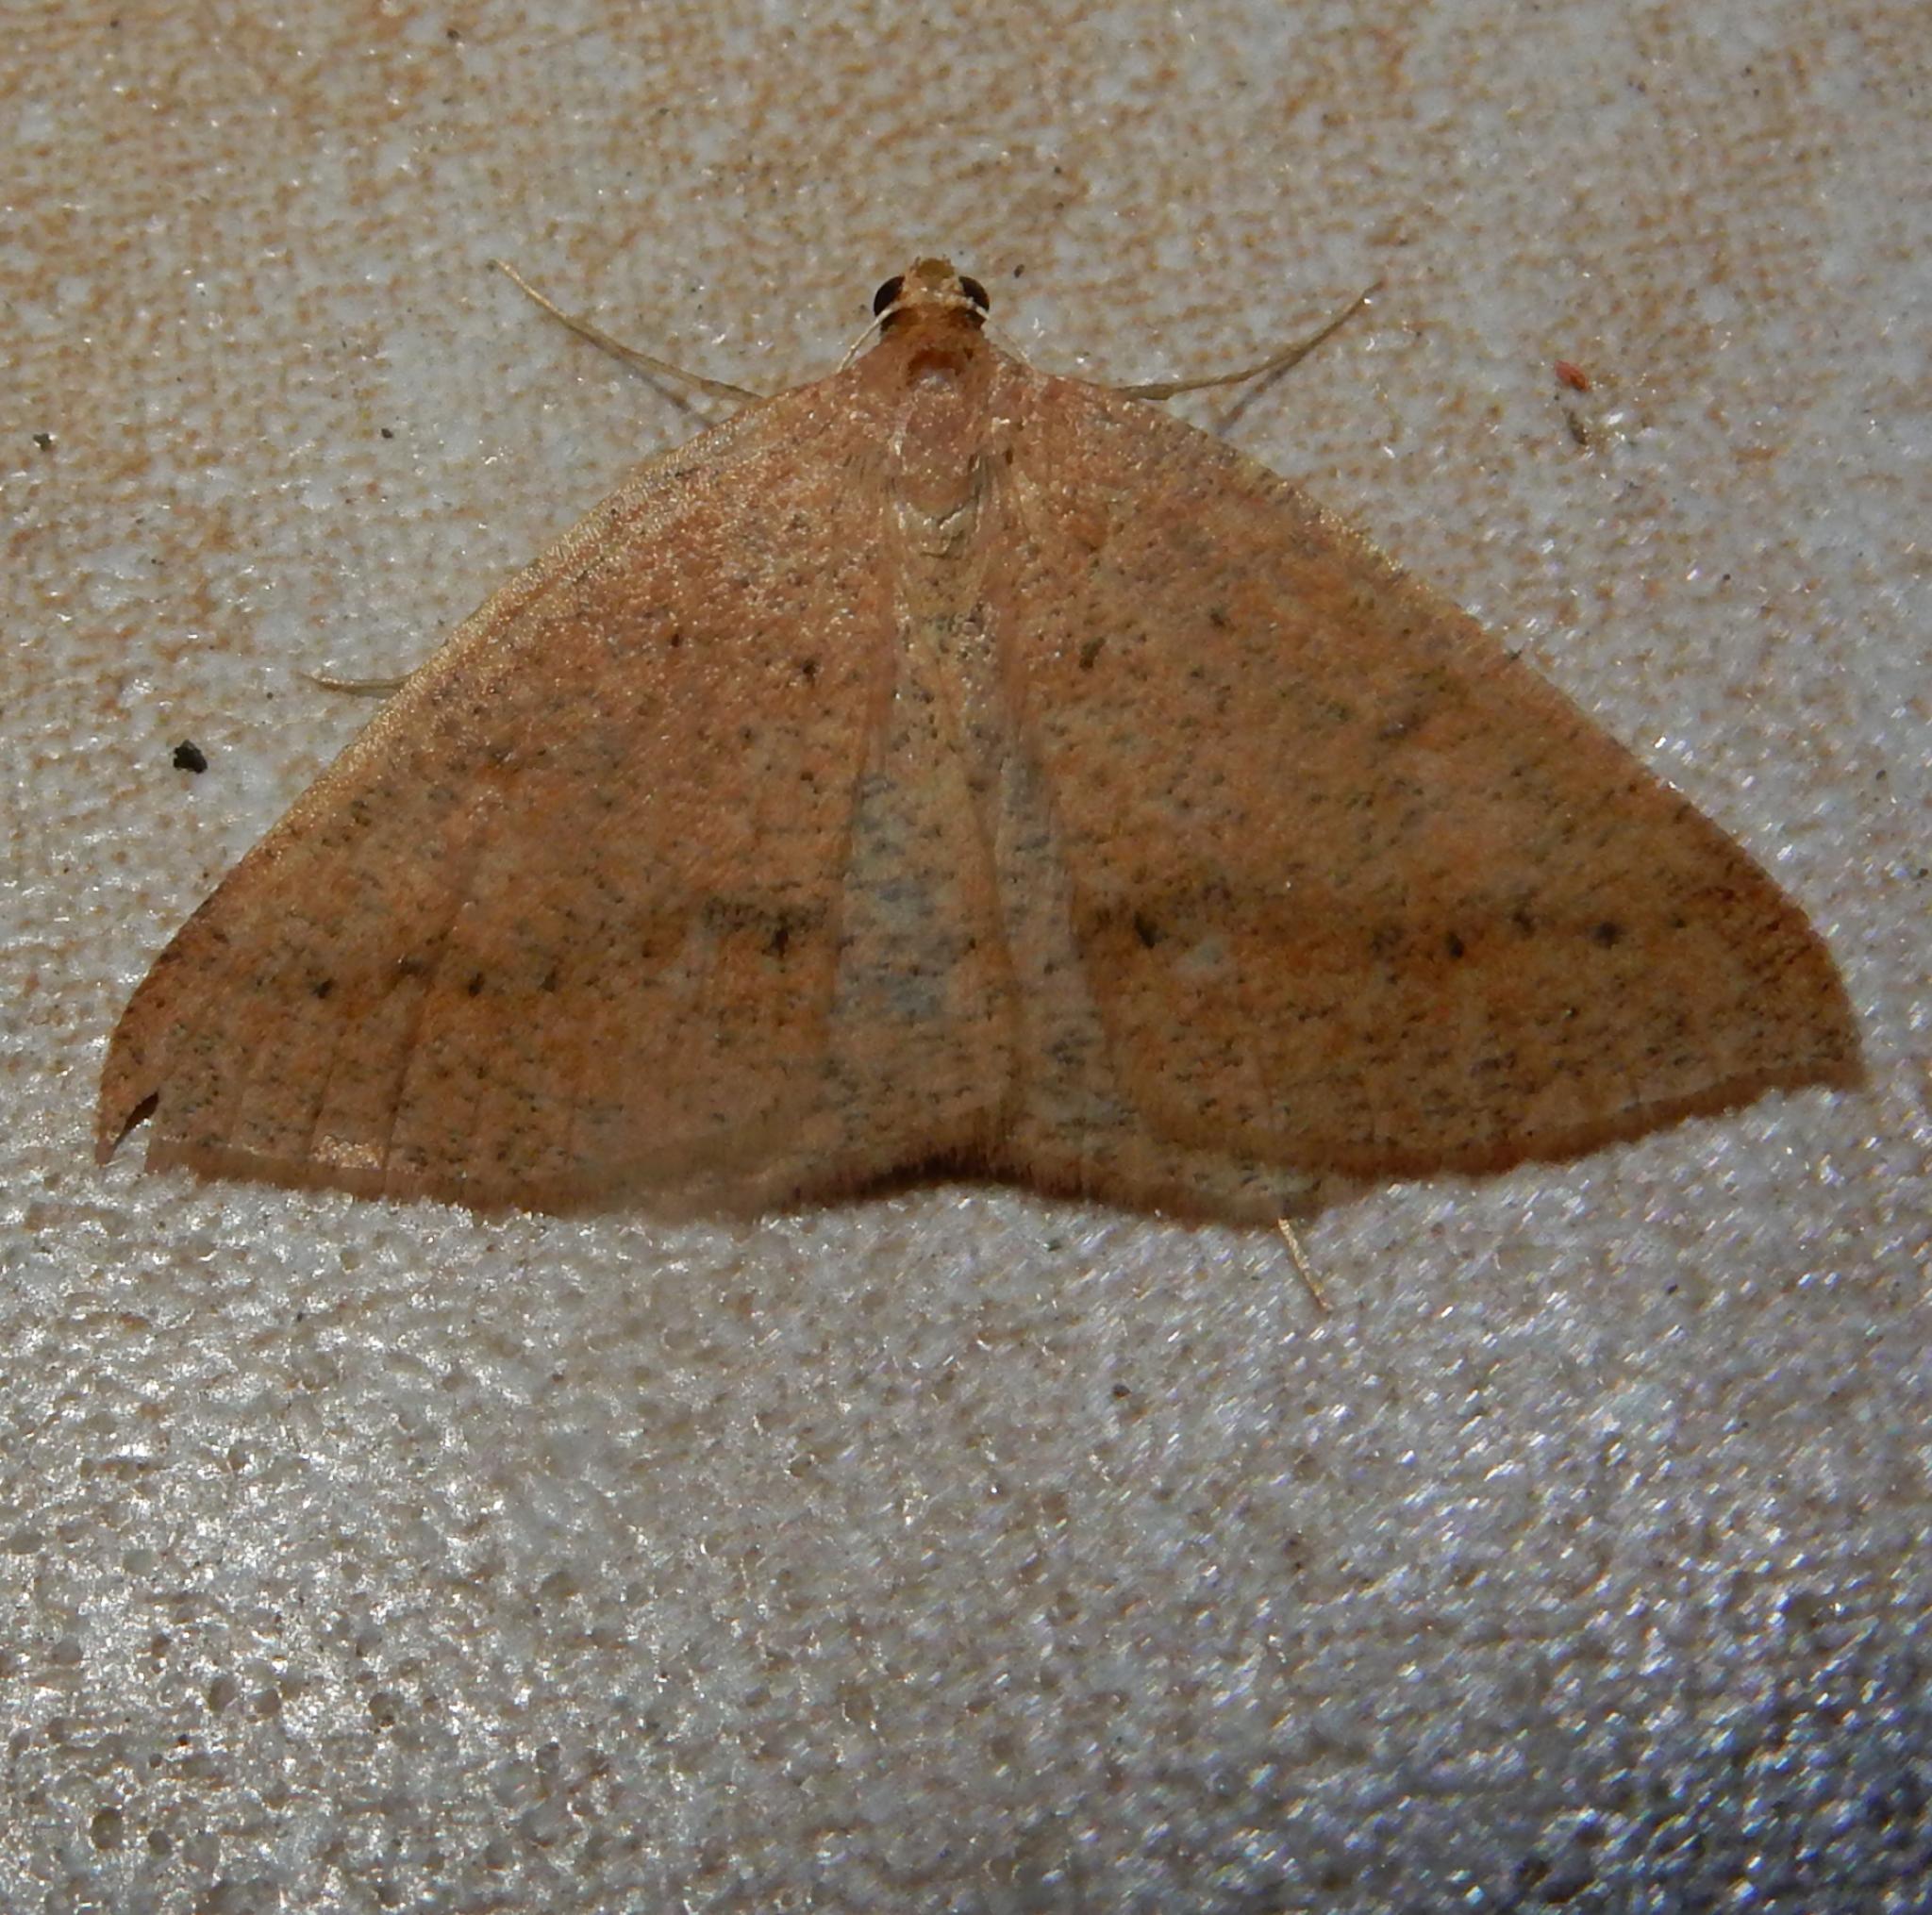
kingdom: Animalia
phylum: Arthropoda
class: Insecta
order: Lepidoptera
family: Geometridae
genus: Palaeaspilates
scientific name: Palaeaspilates inoffensa
